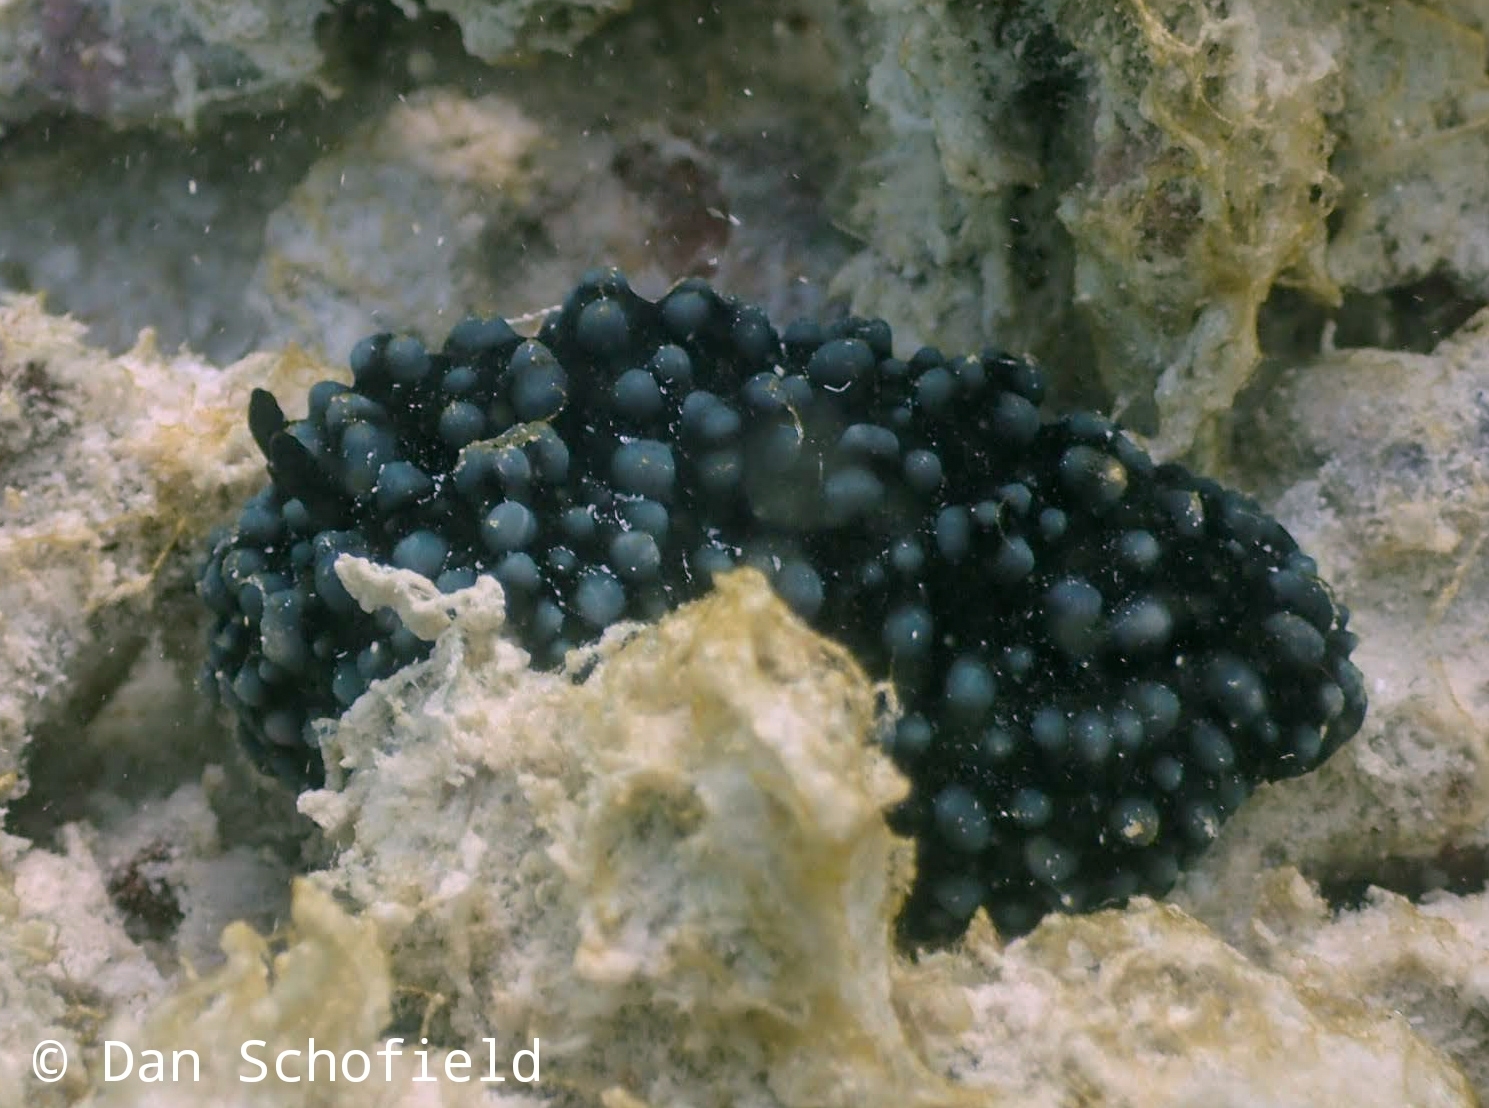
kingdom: Animalia
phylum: Mollusca
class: Gastropoda
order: Nudibranchia
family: Phyllidiidae
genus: Phyllidiella
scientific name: Phyllidiella nigra
